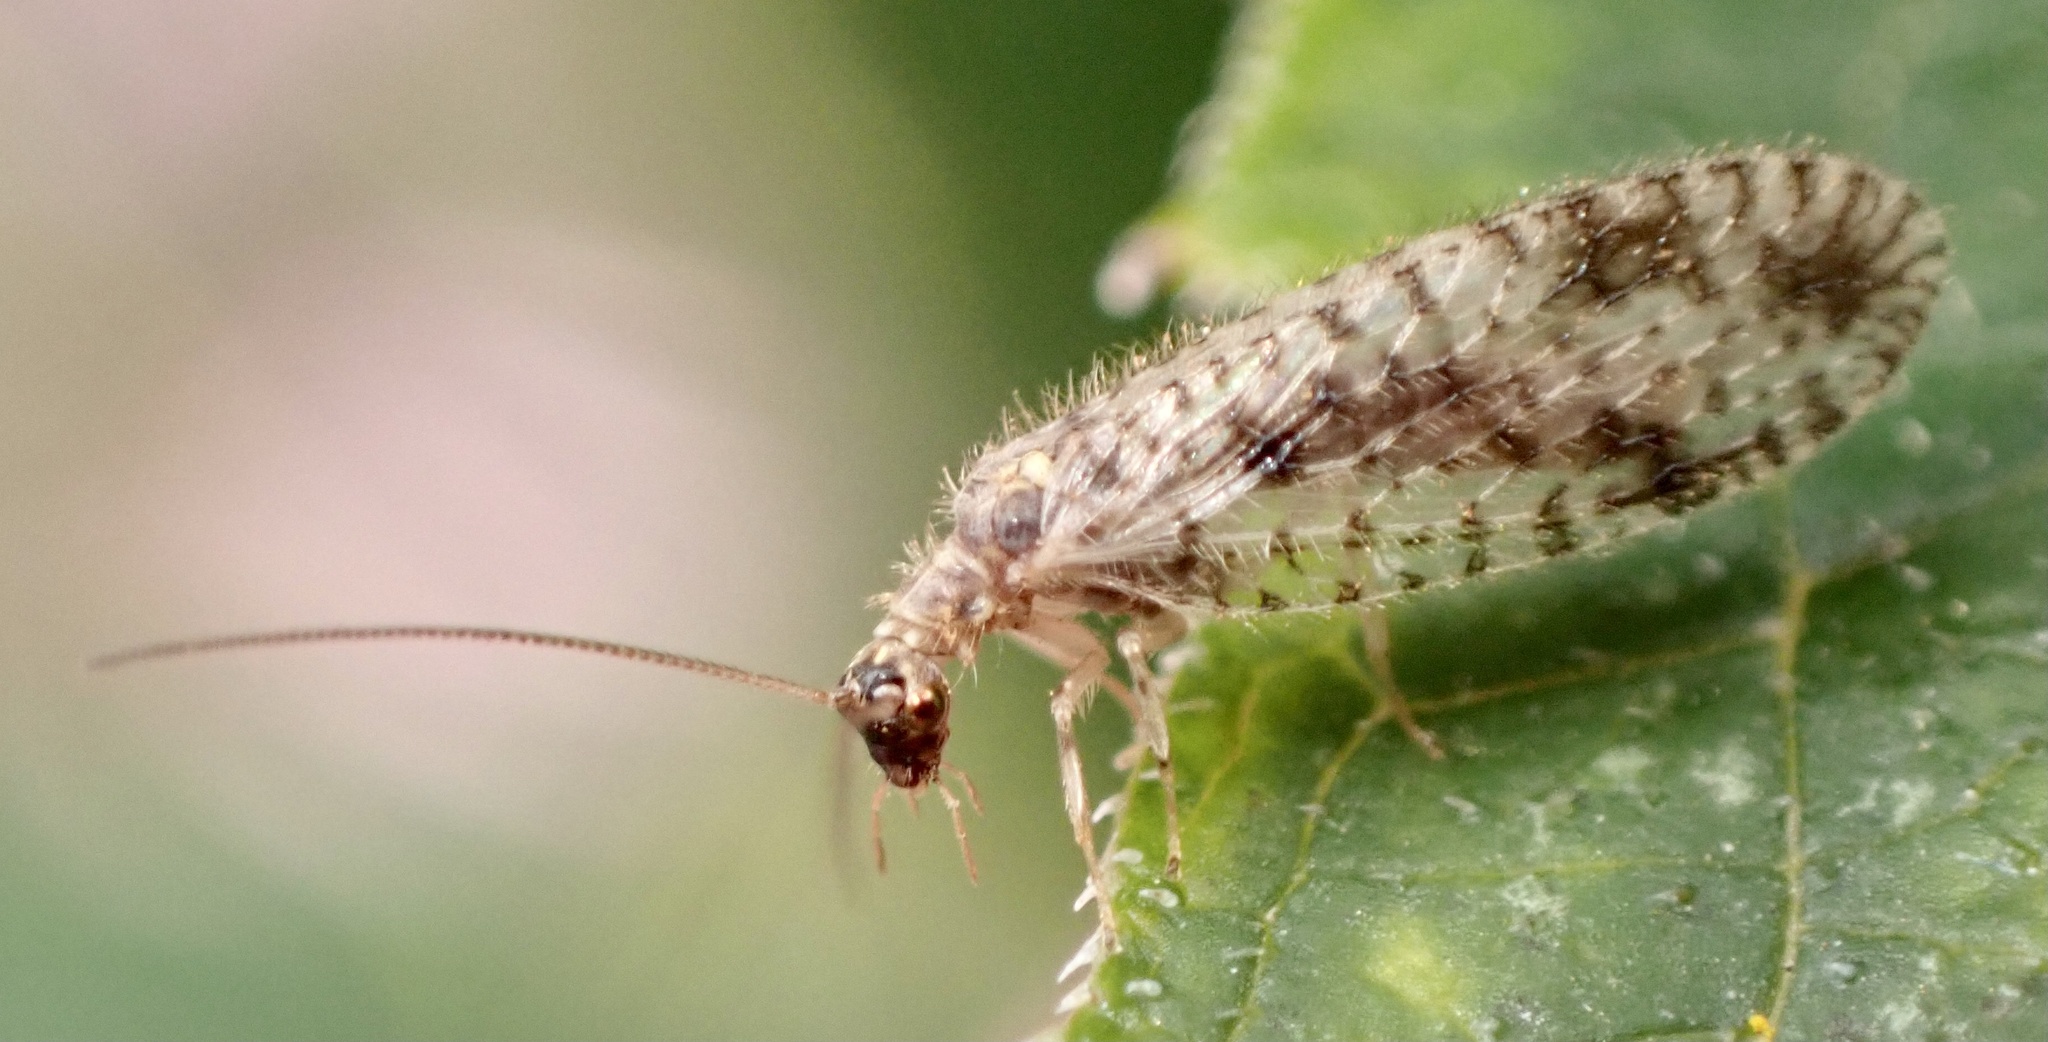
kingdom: Animalia
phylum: Arthropoda
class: Insecta
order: Neuroptera
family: Hemerobiidae
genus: Micromus
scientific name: Micromus variegatus
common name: Brown lacewing
